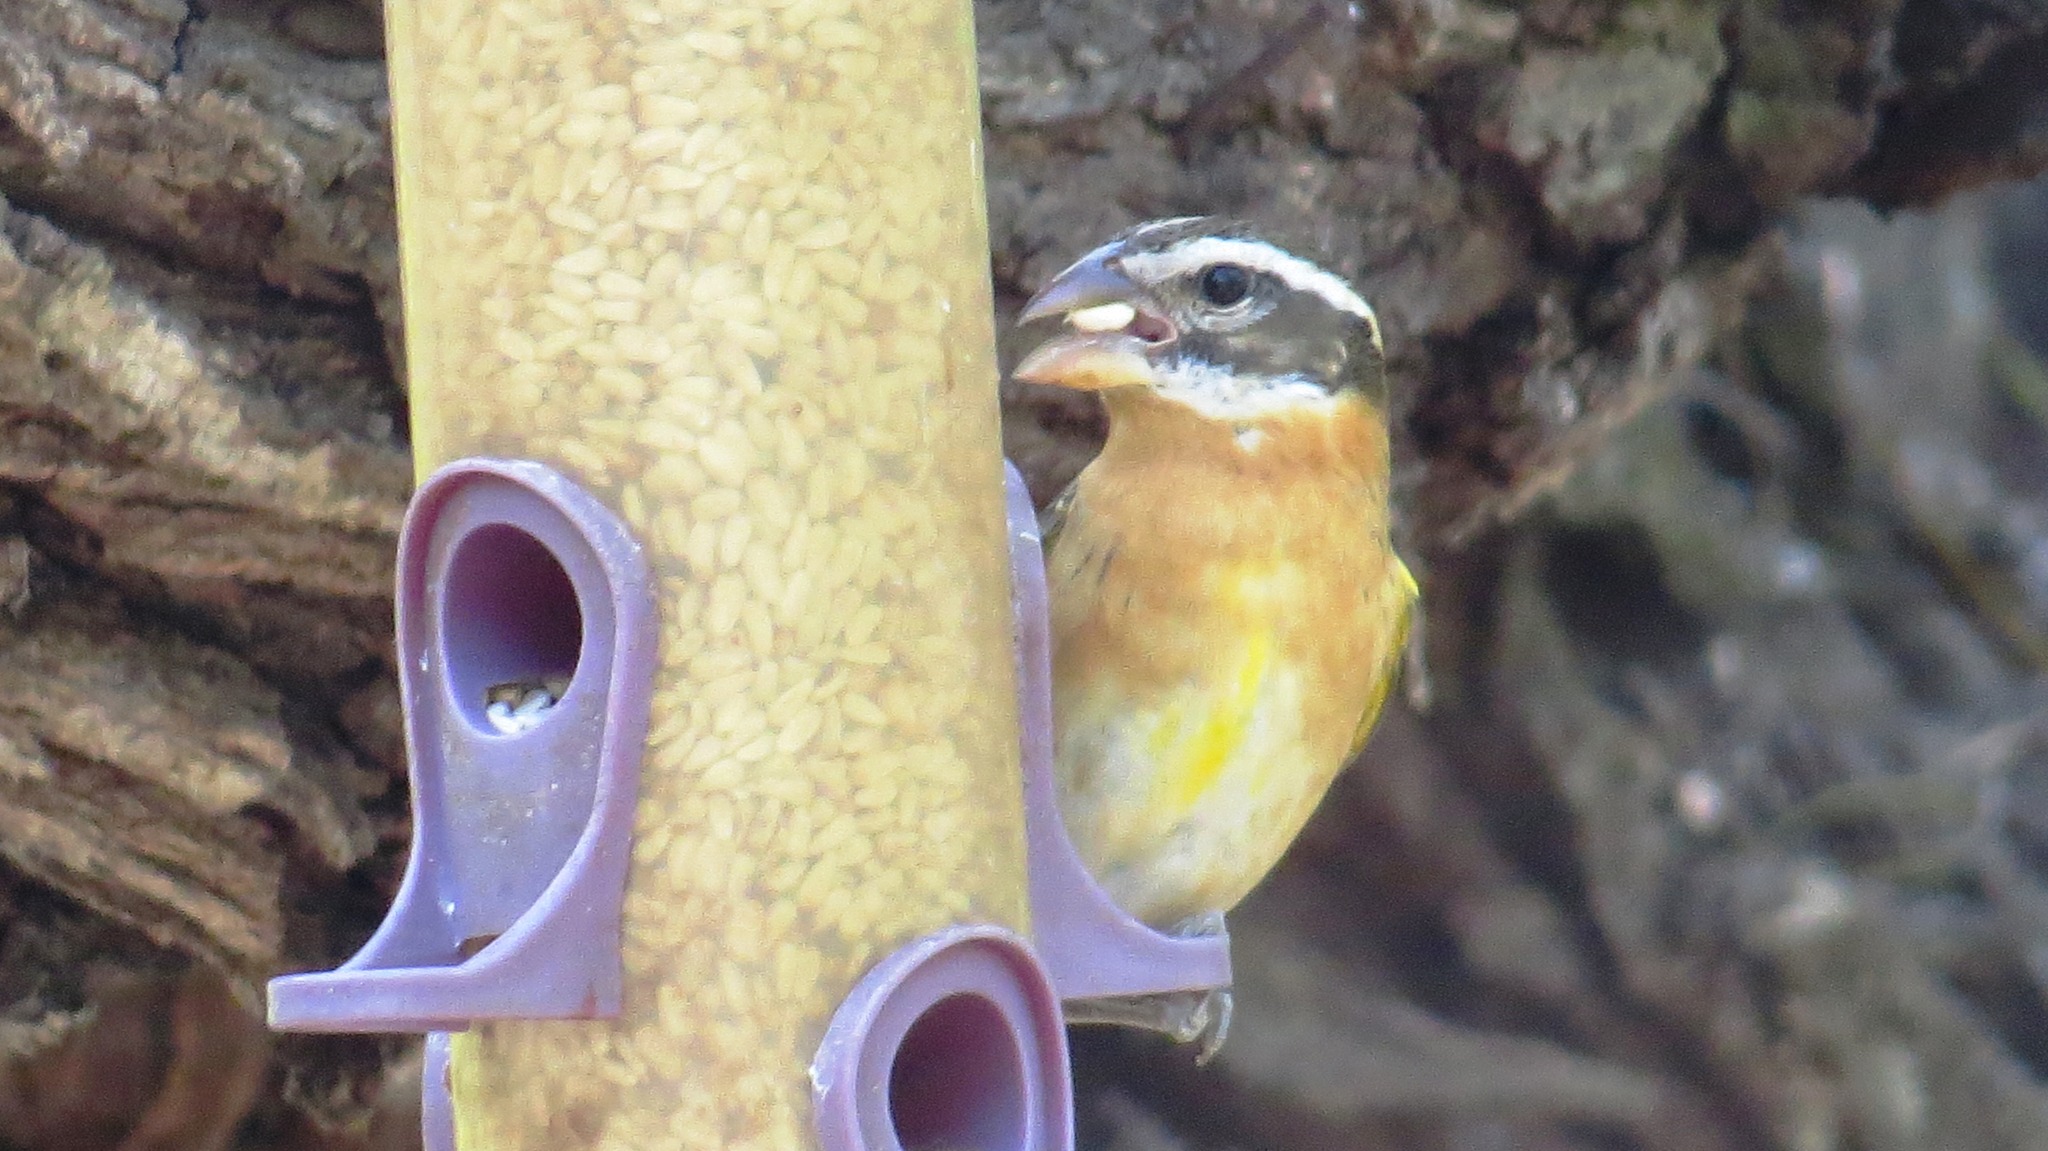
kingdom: Animalia
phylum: Chordata
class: Aves
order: Passeriformes
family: Cardinalidae
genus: Pheucticus
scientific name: Pheucticus melanocephalus
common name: Black-headed grosbeak
